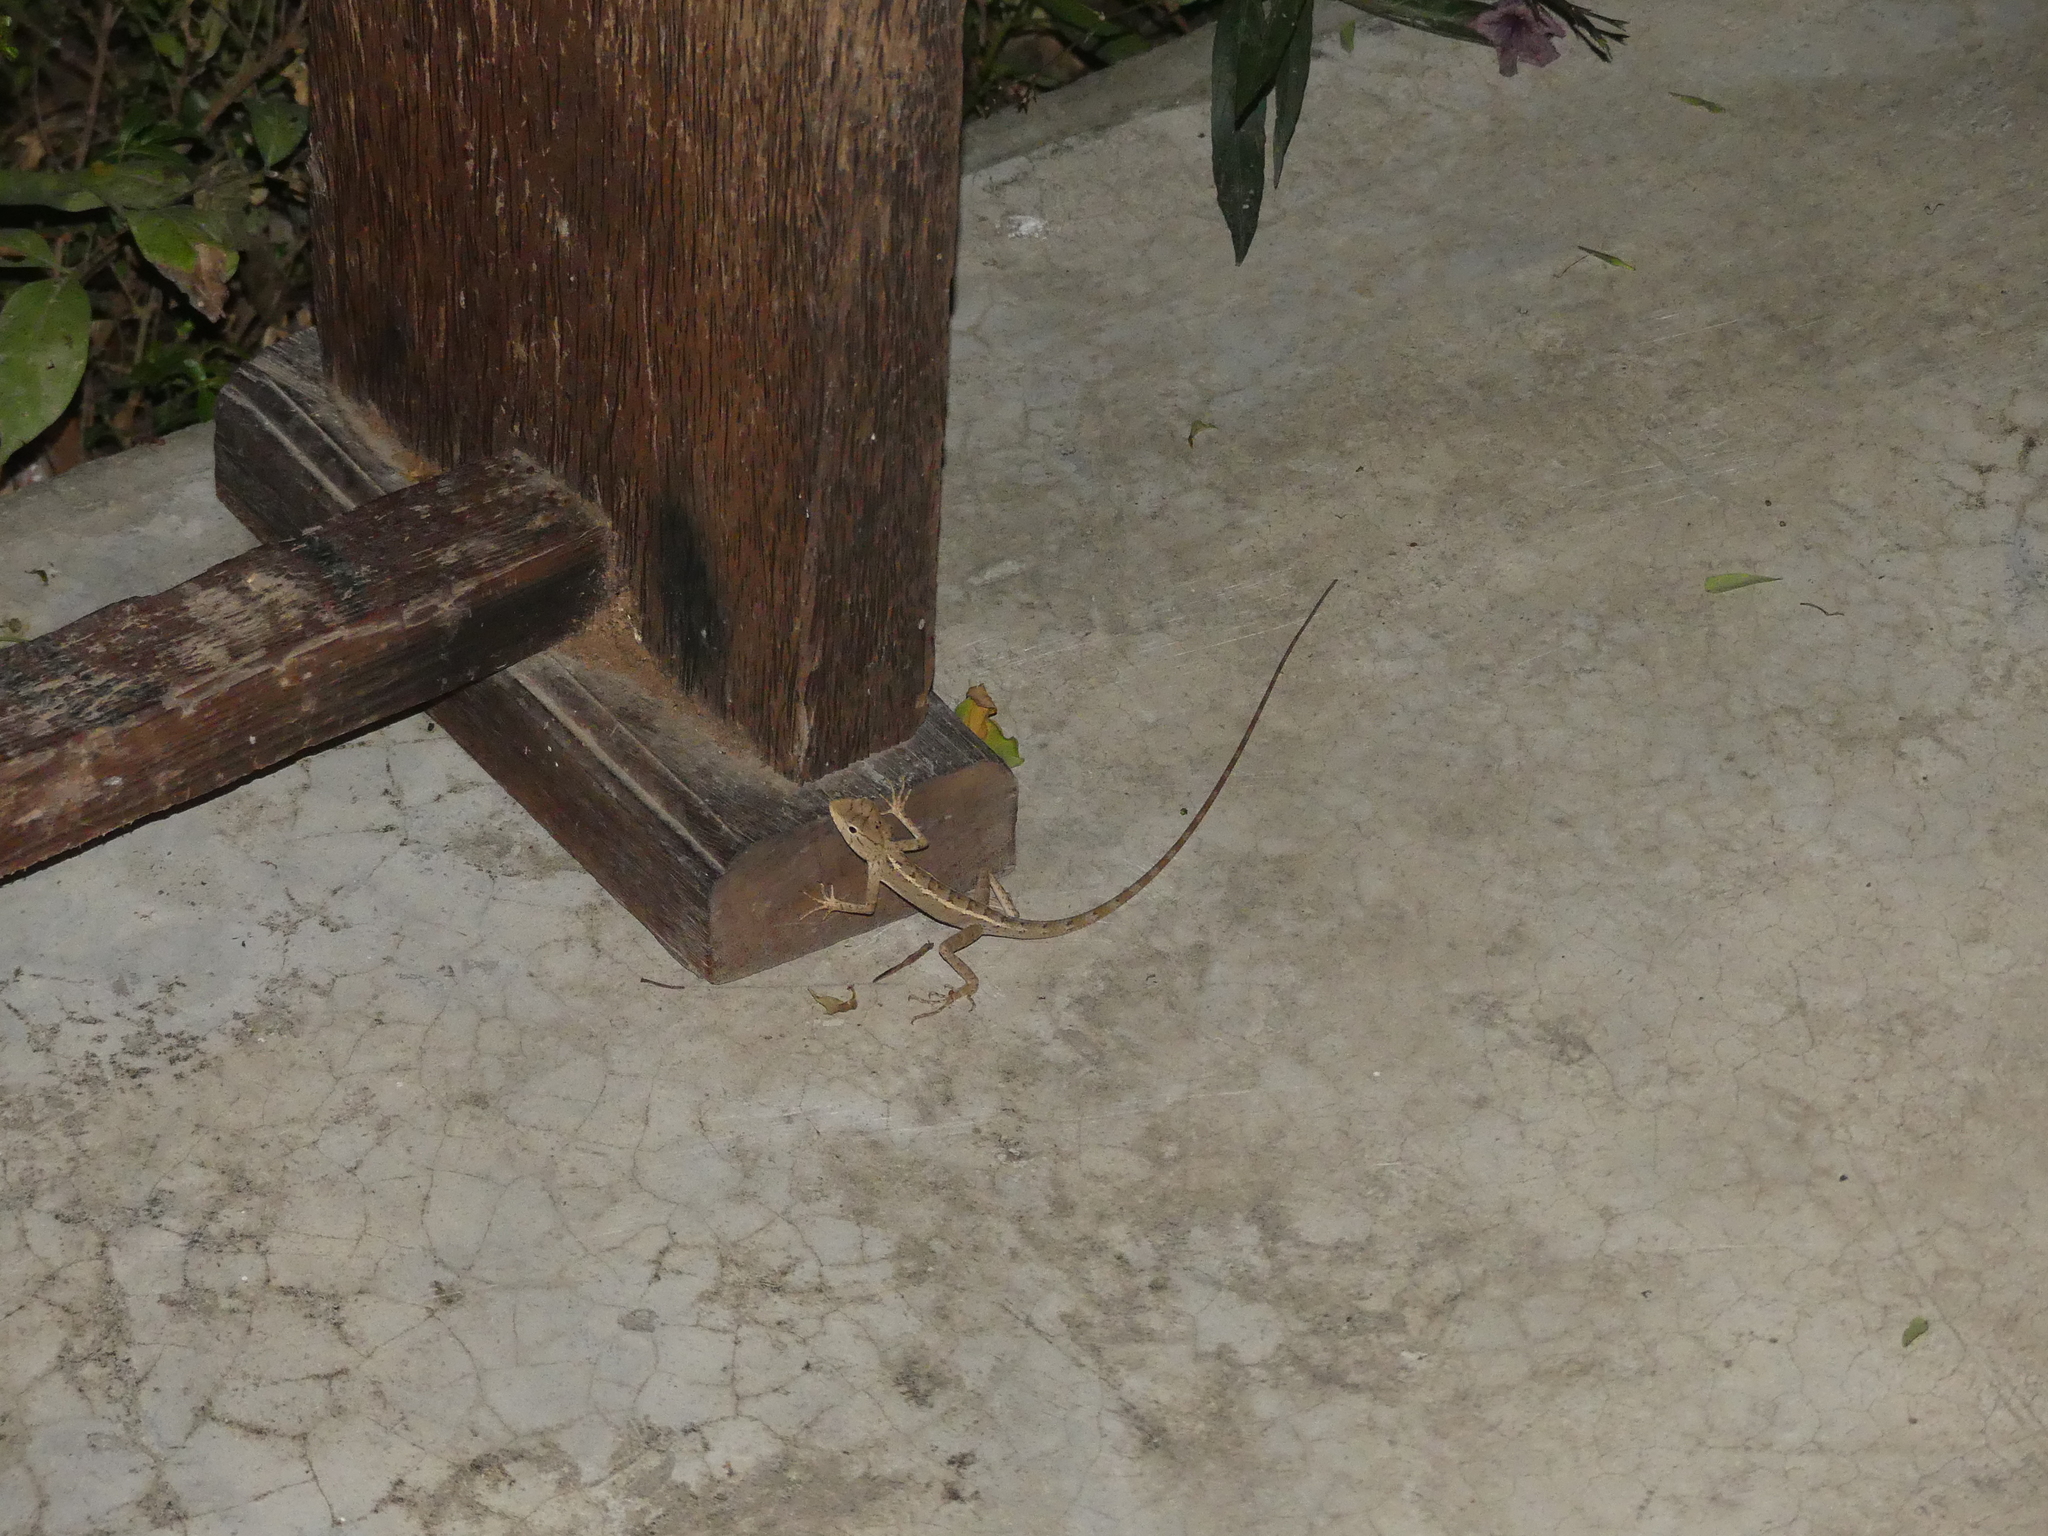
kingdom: Animalia
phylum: Chordata
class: Squamata
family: Agamidae
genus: Calotes
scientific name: Calotes versicolor
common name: Oriental garden lizard
